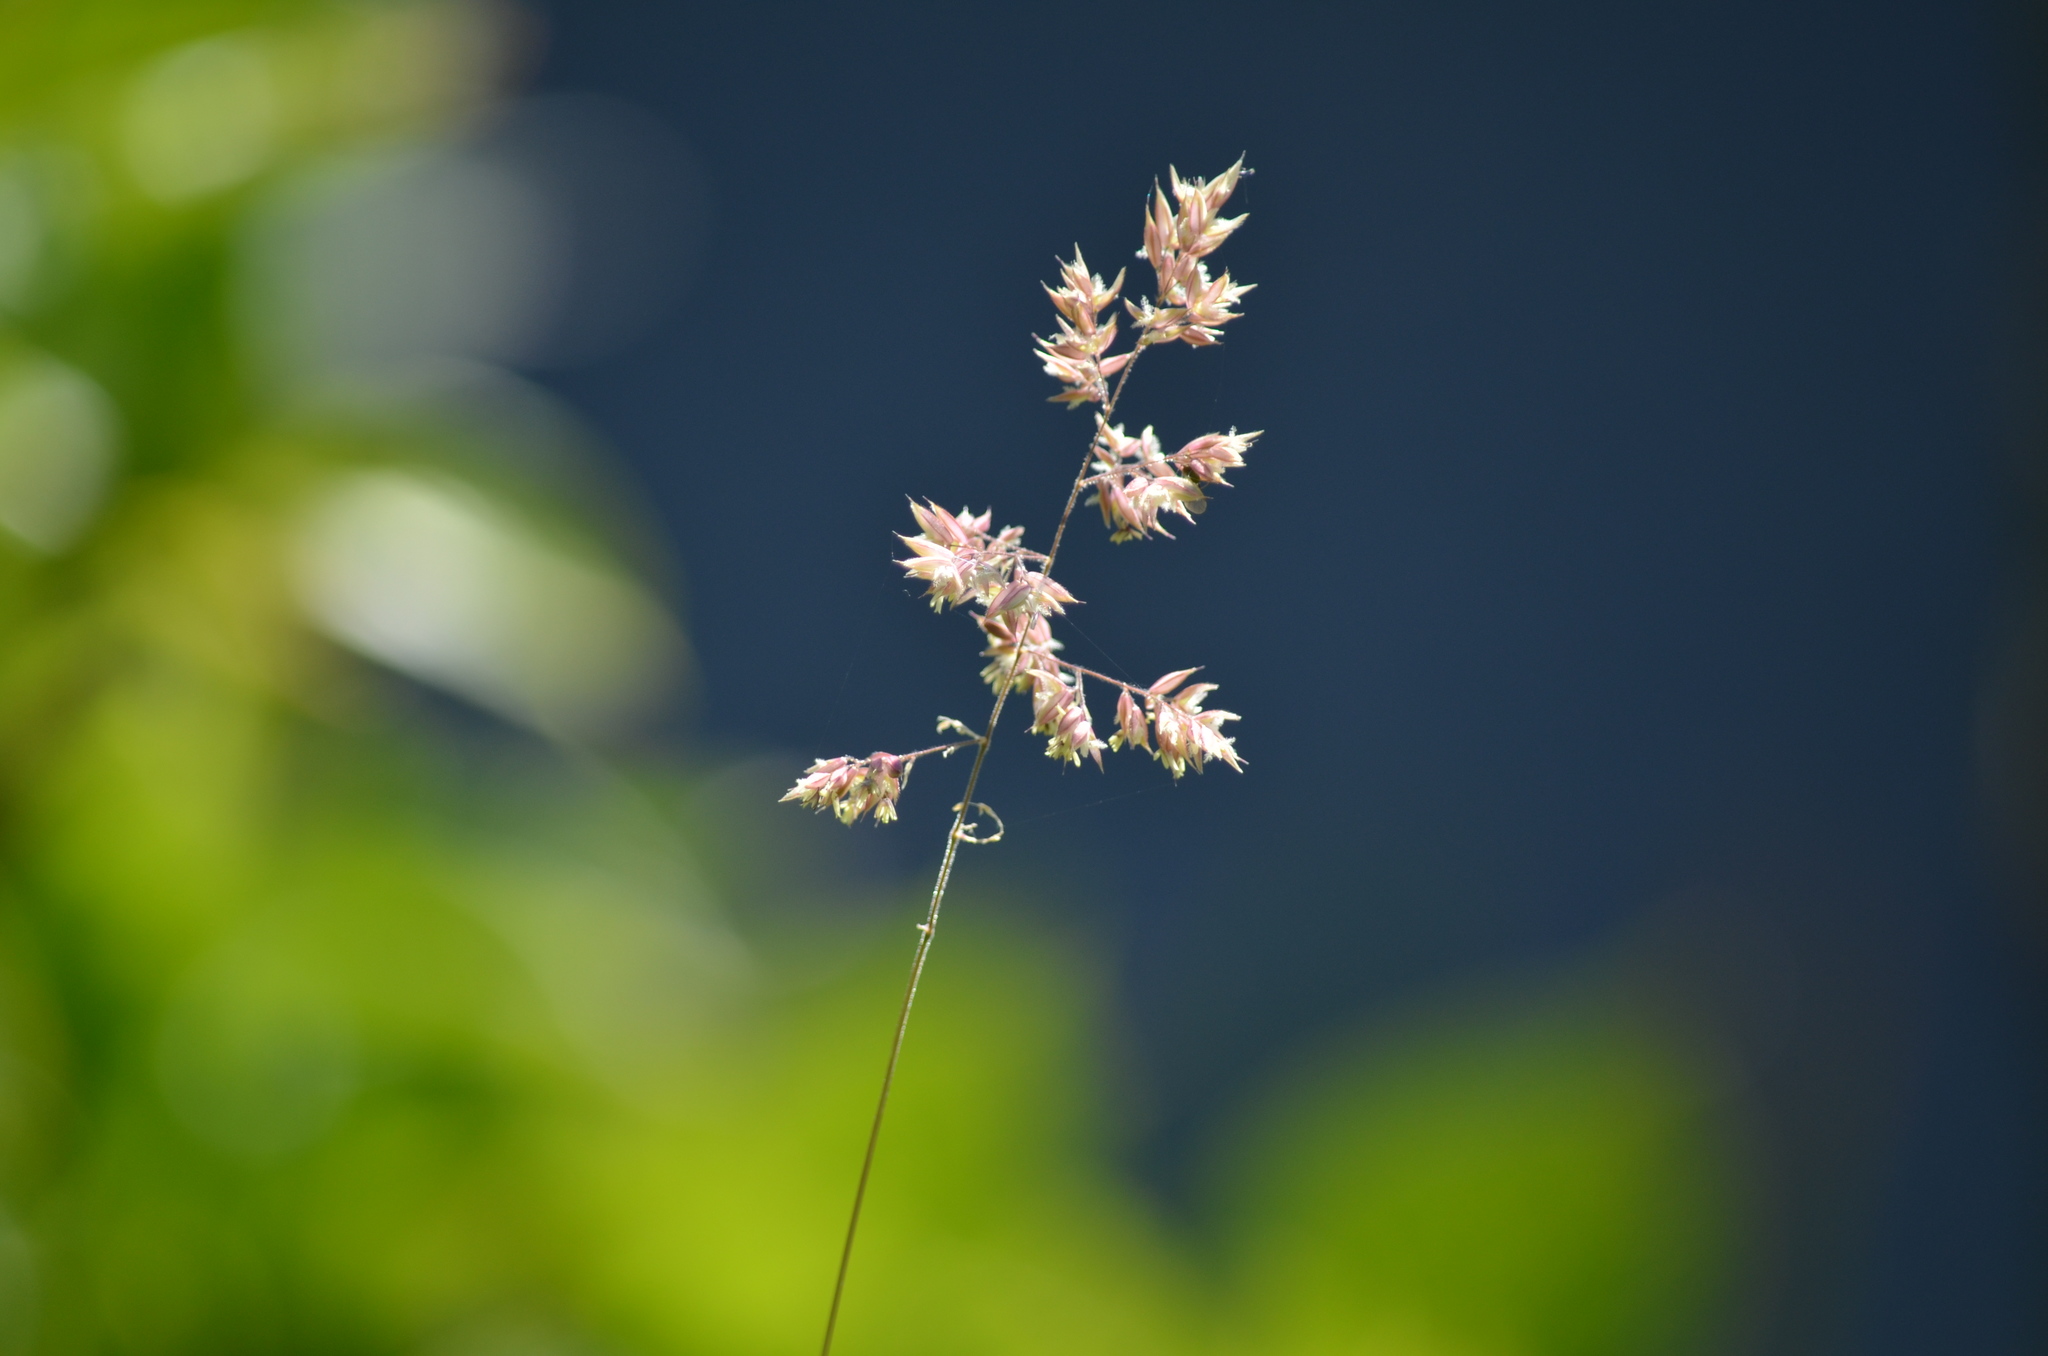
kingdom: Plantae
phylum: Tracheophyta
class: Liliopsida
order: Poales
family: Poaceae
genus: Phalaris
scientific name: Phalaris arundinacea
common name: Reed canary-grass
